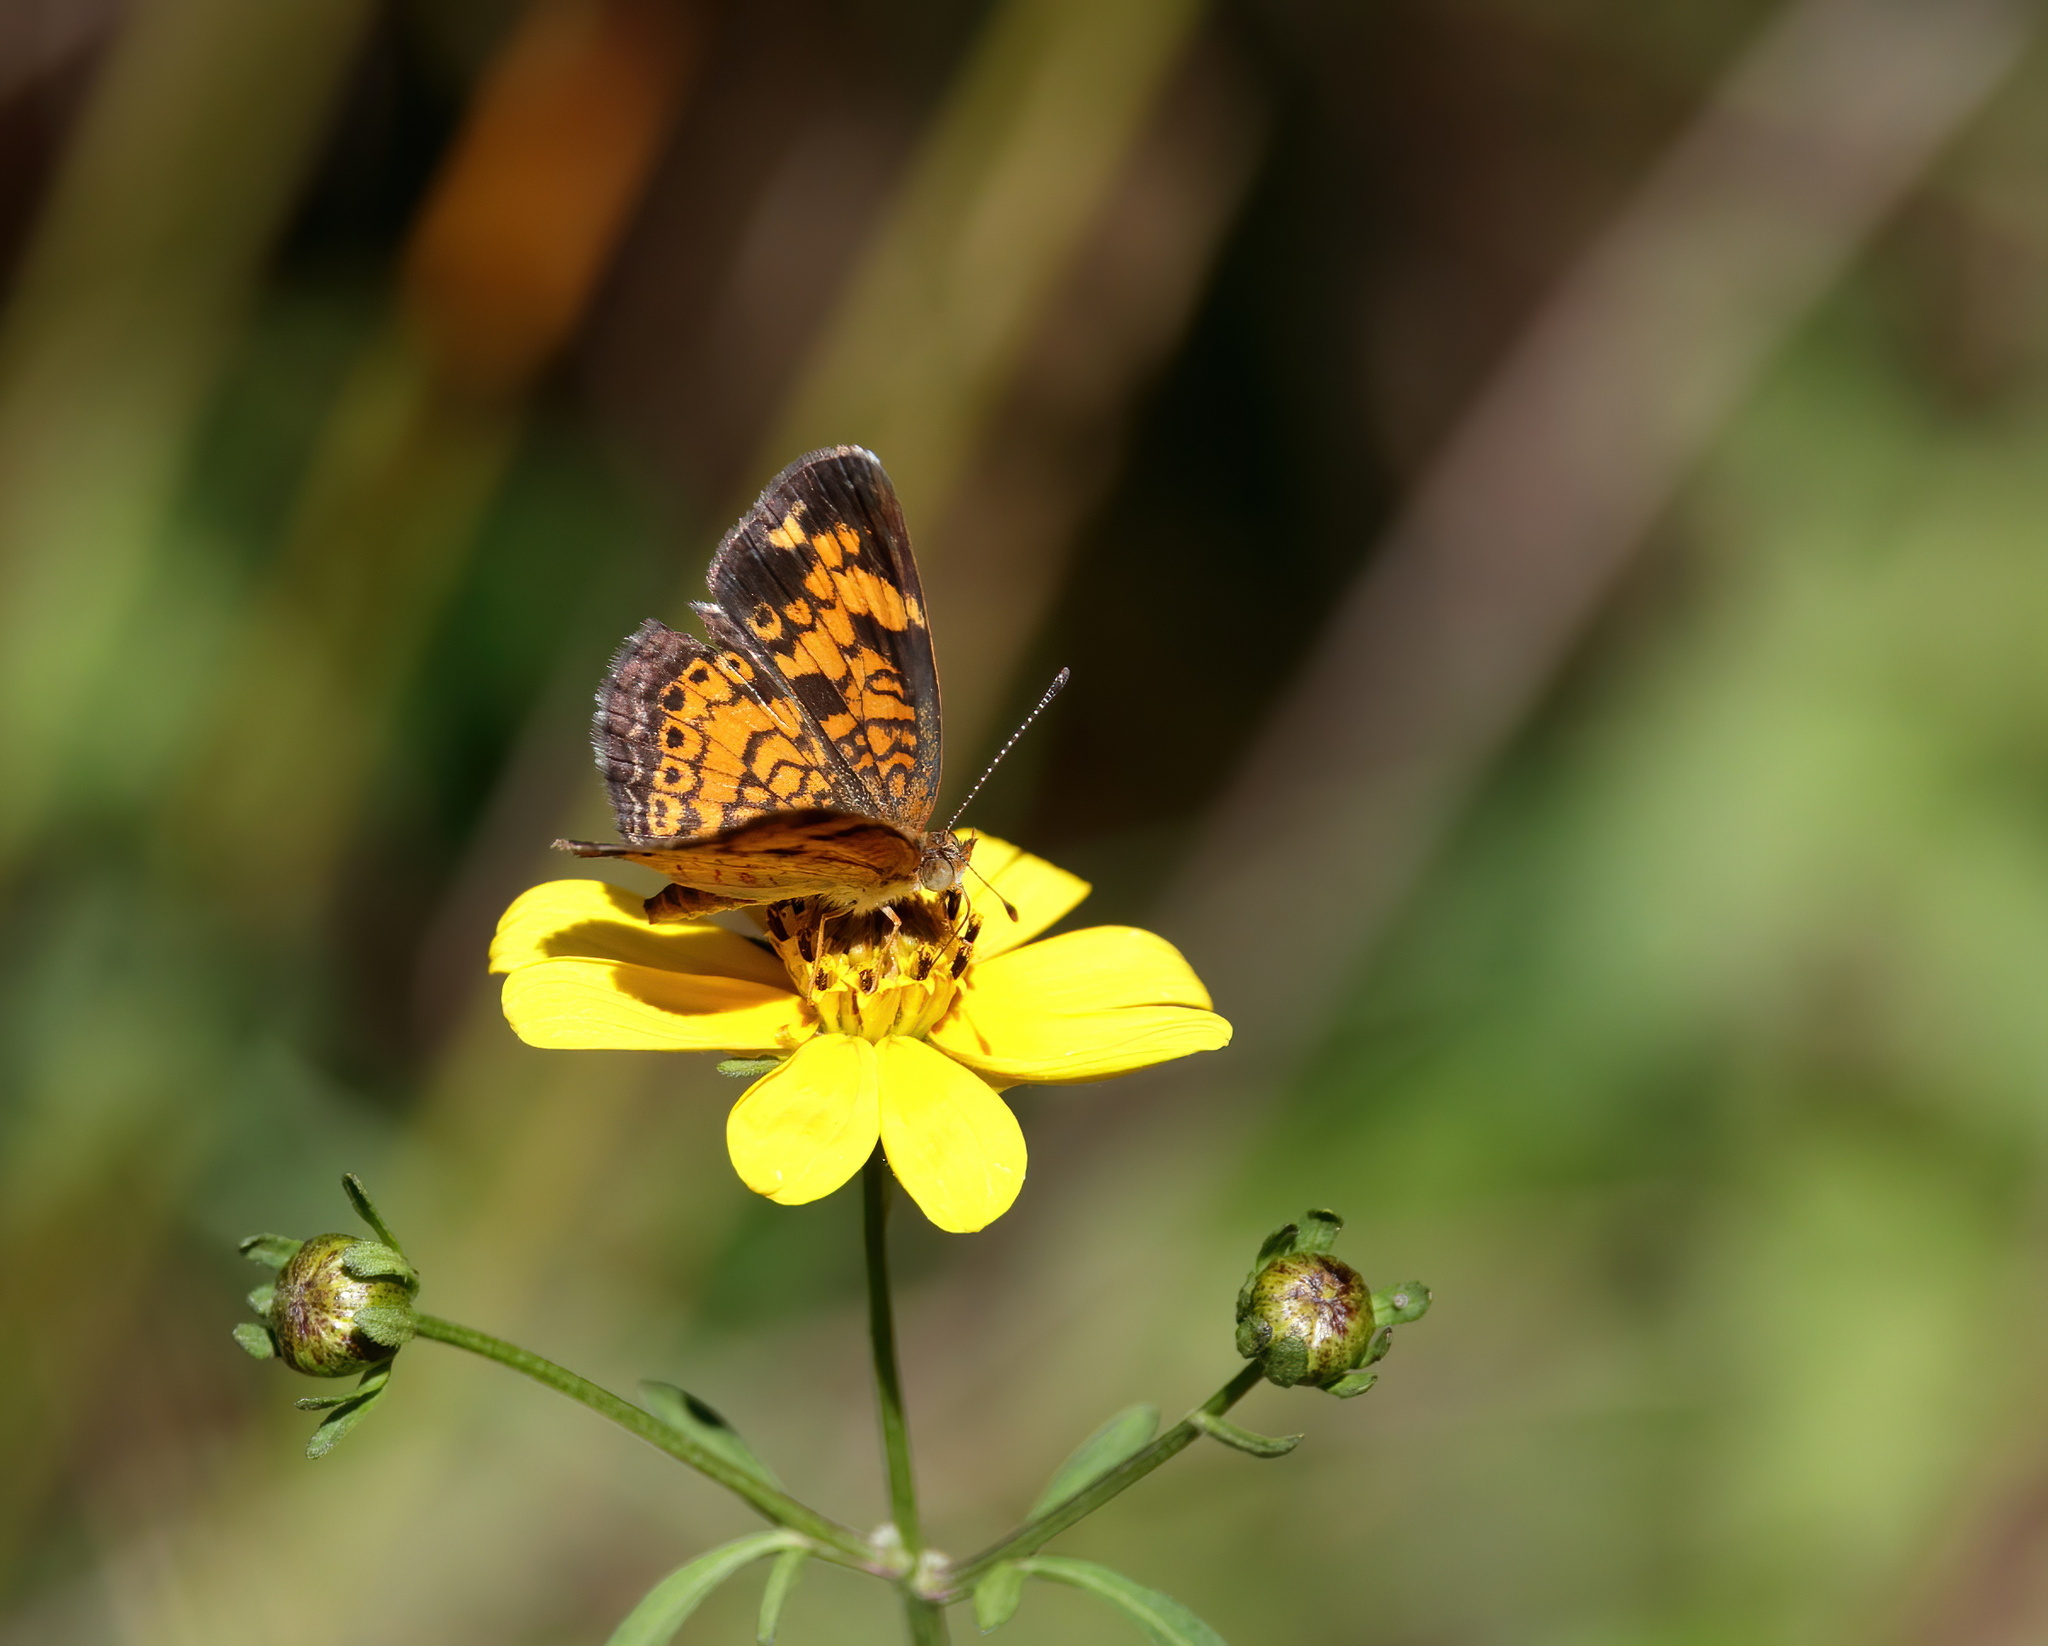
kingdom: Plantae
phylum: Tracheophyta
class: Magnoliopsida
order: Asterales
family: Asteraceae
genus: Bidens
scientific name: Bidens mitis
